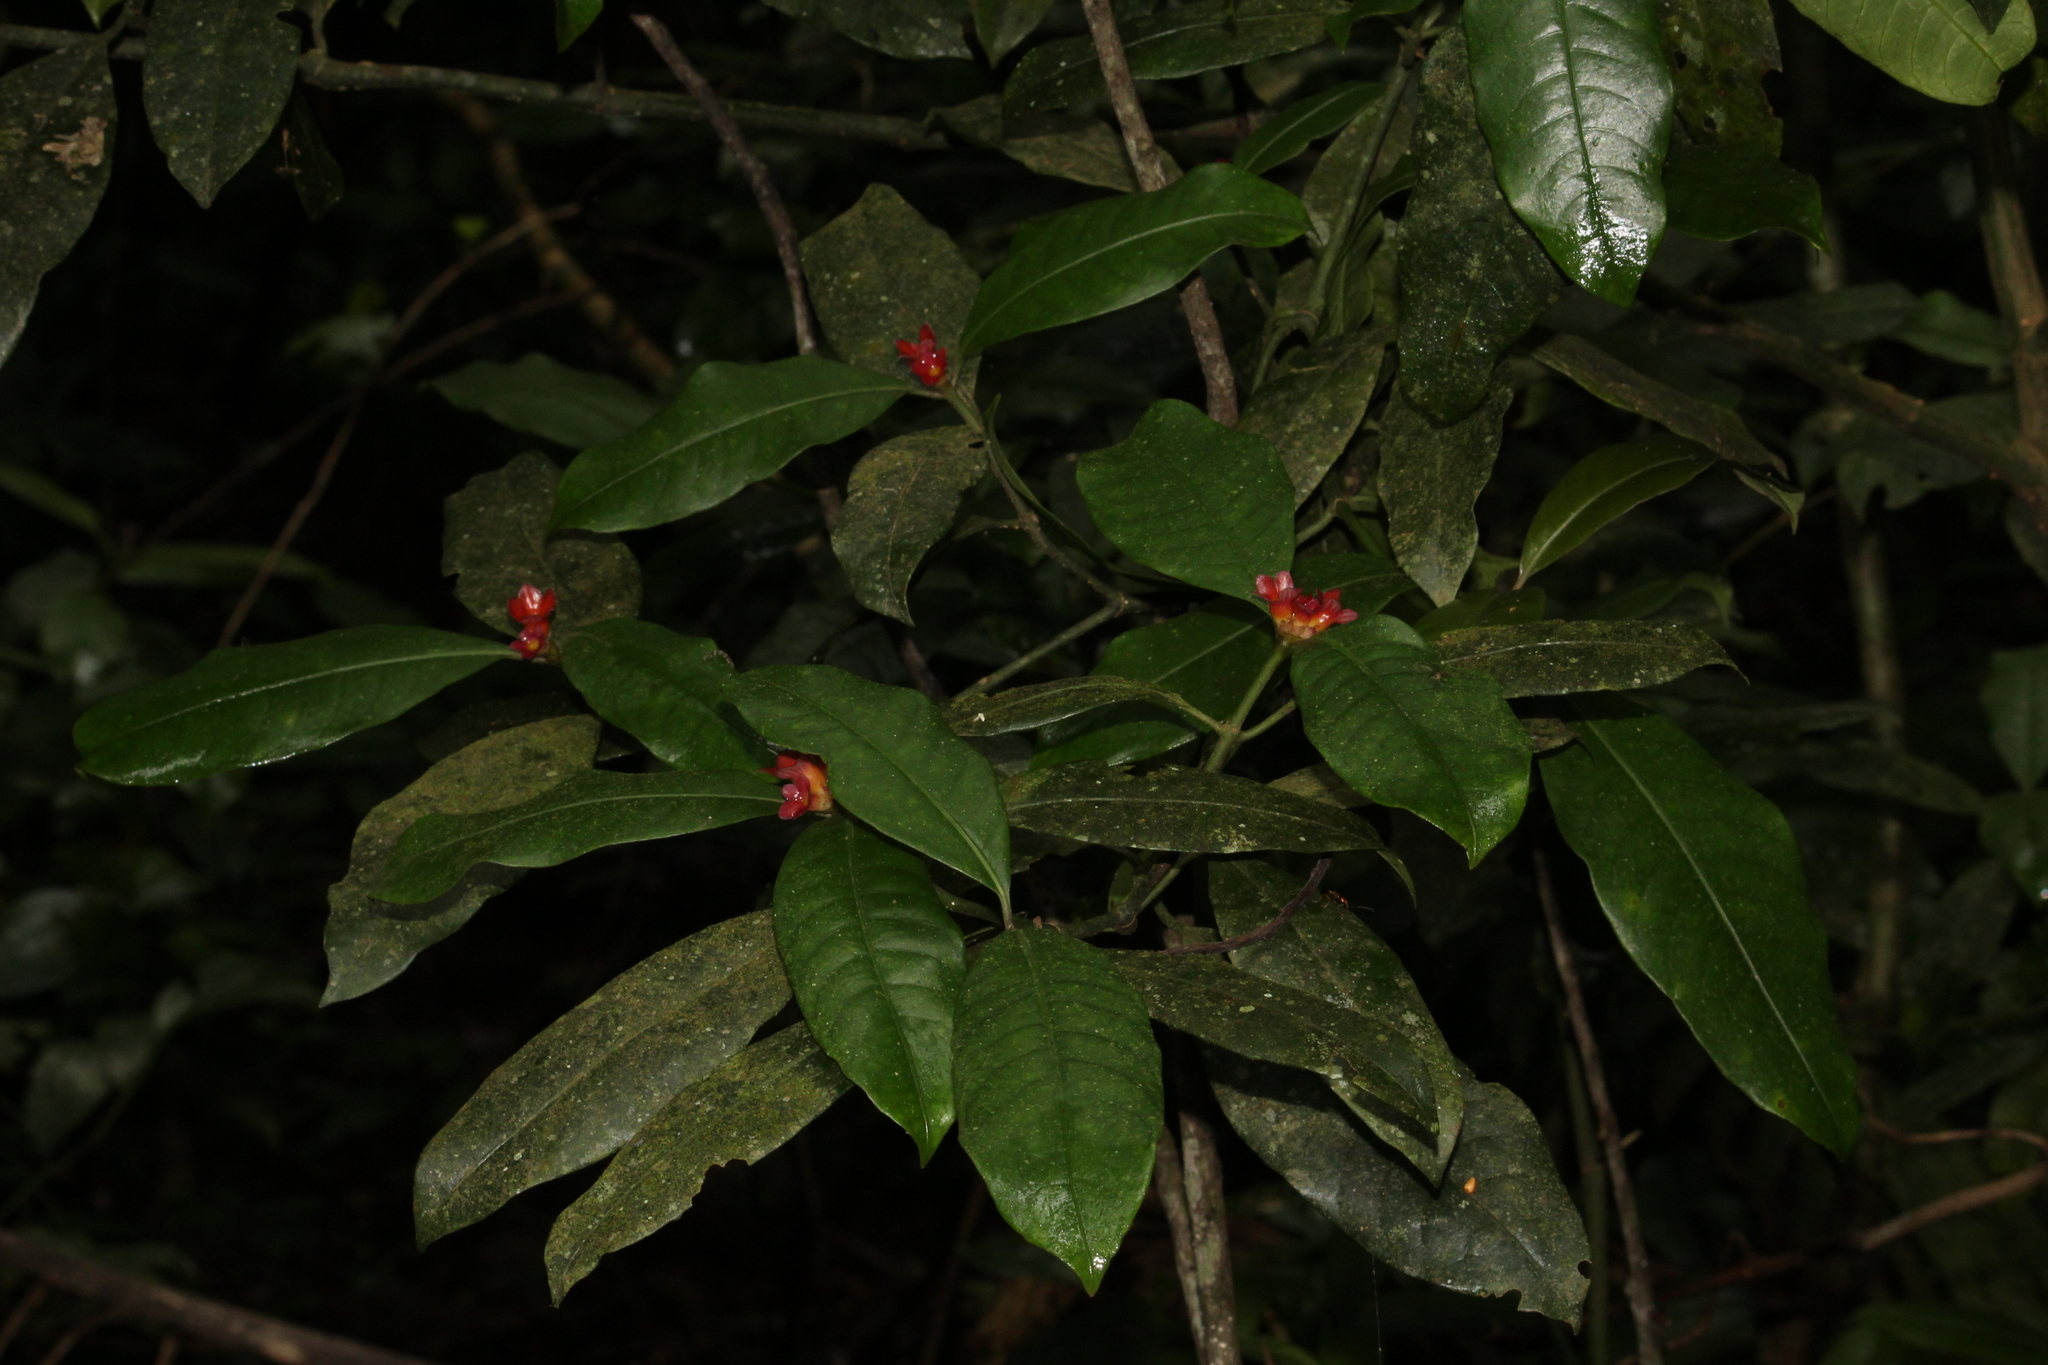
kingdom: Plantae
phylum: Tracheophyta
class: Magnoliopsida
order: Gentianales
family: Rubiaceae
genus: Psychotria
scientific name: Psychotria nuda
